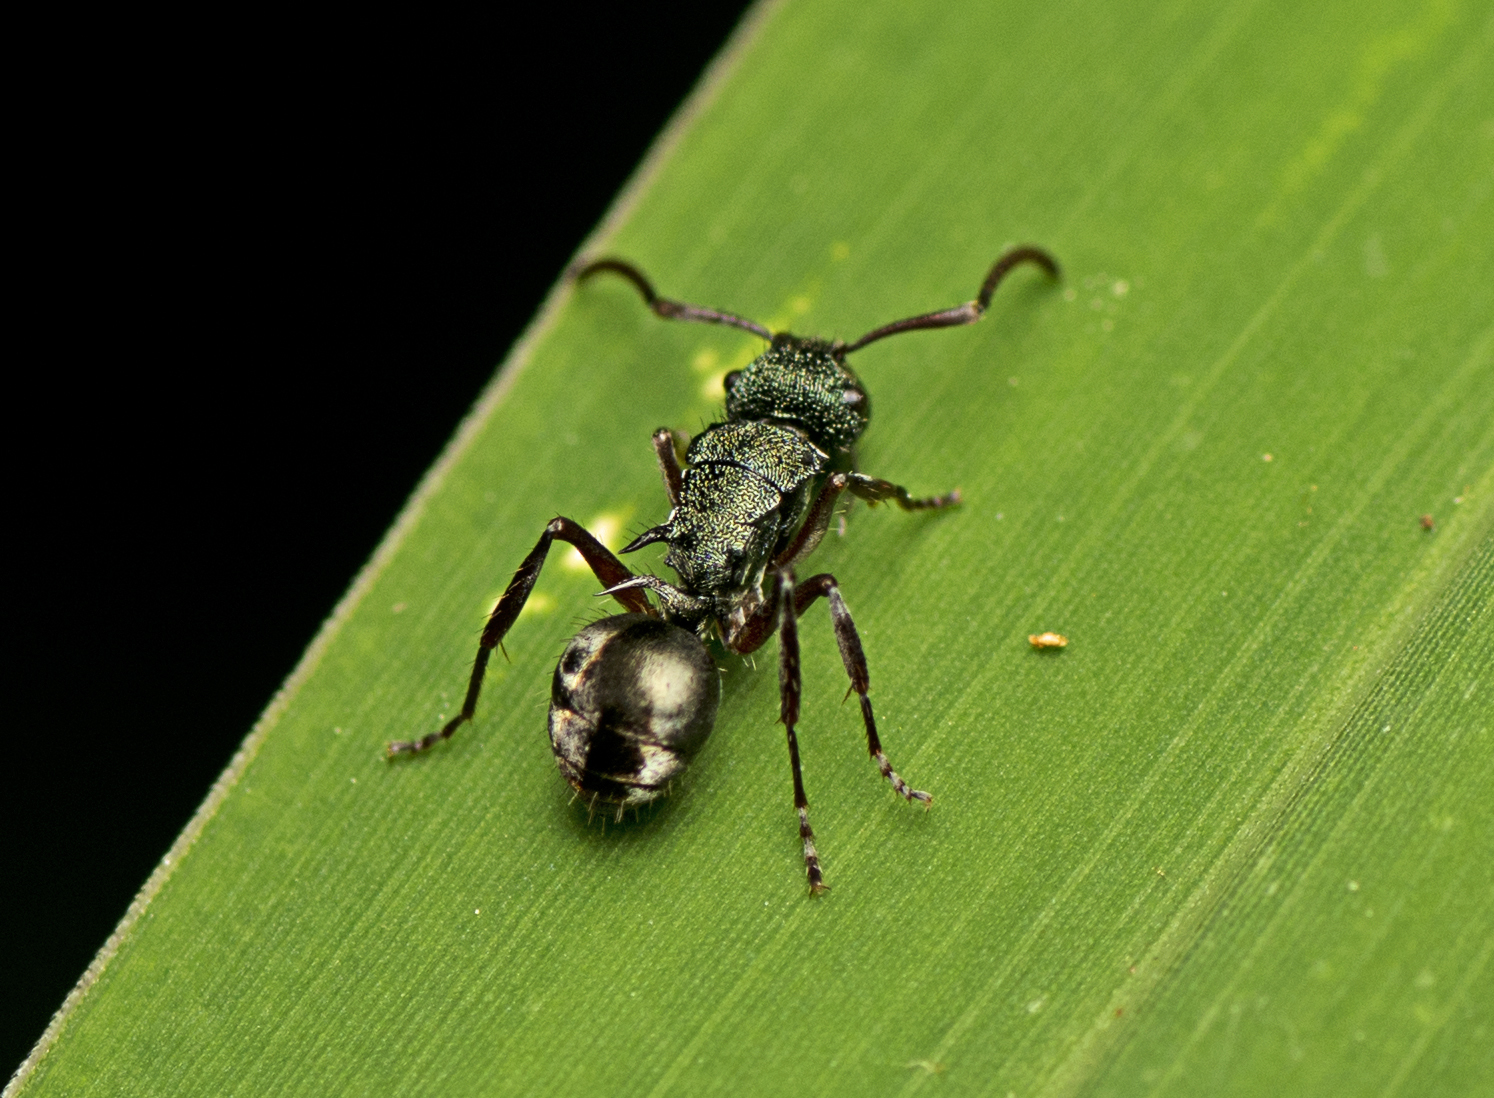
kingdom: Animalia
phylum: Arthropoda
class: Insecta
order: Hymenoptera
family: Formicidae
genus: Polyrhachis
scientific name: Polyrhachis hookeri
